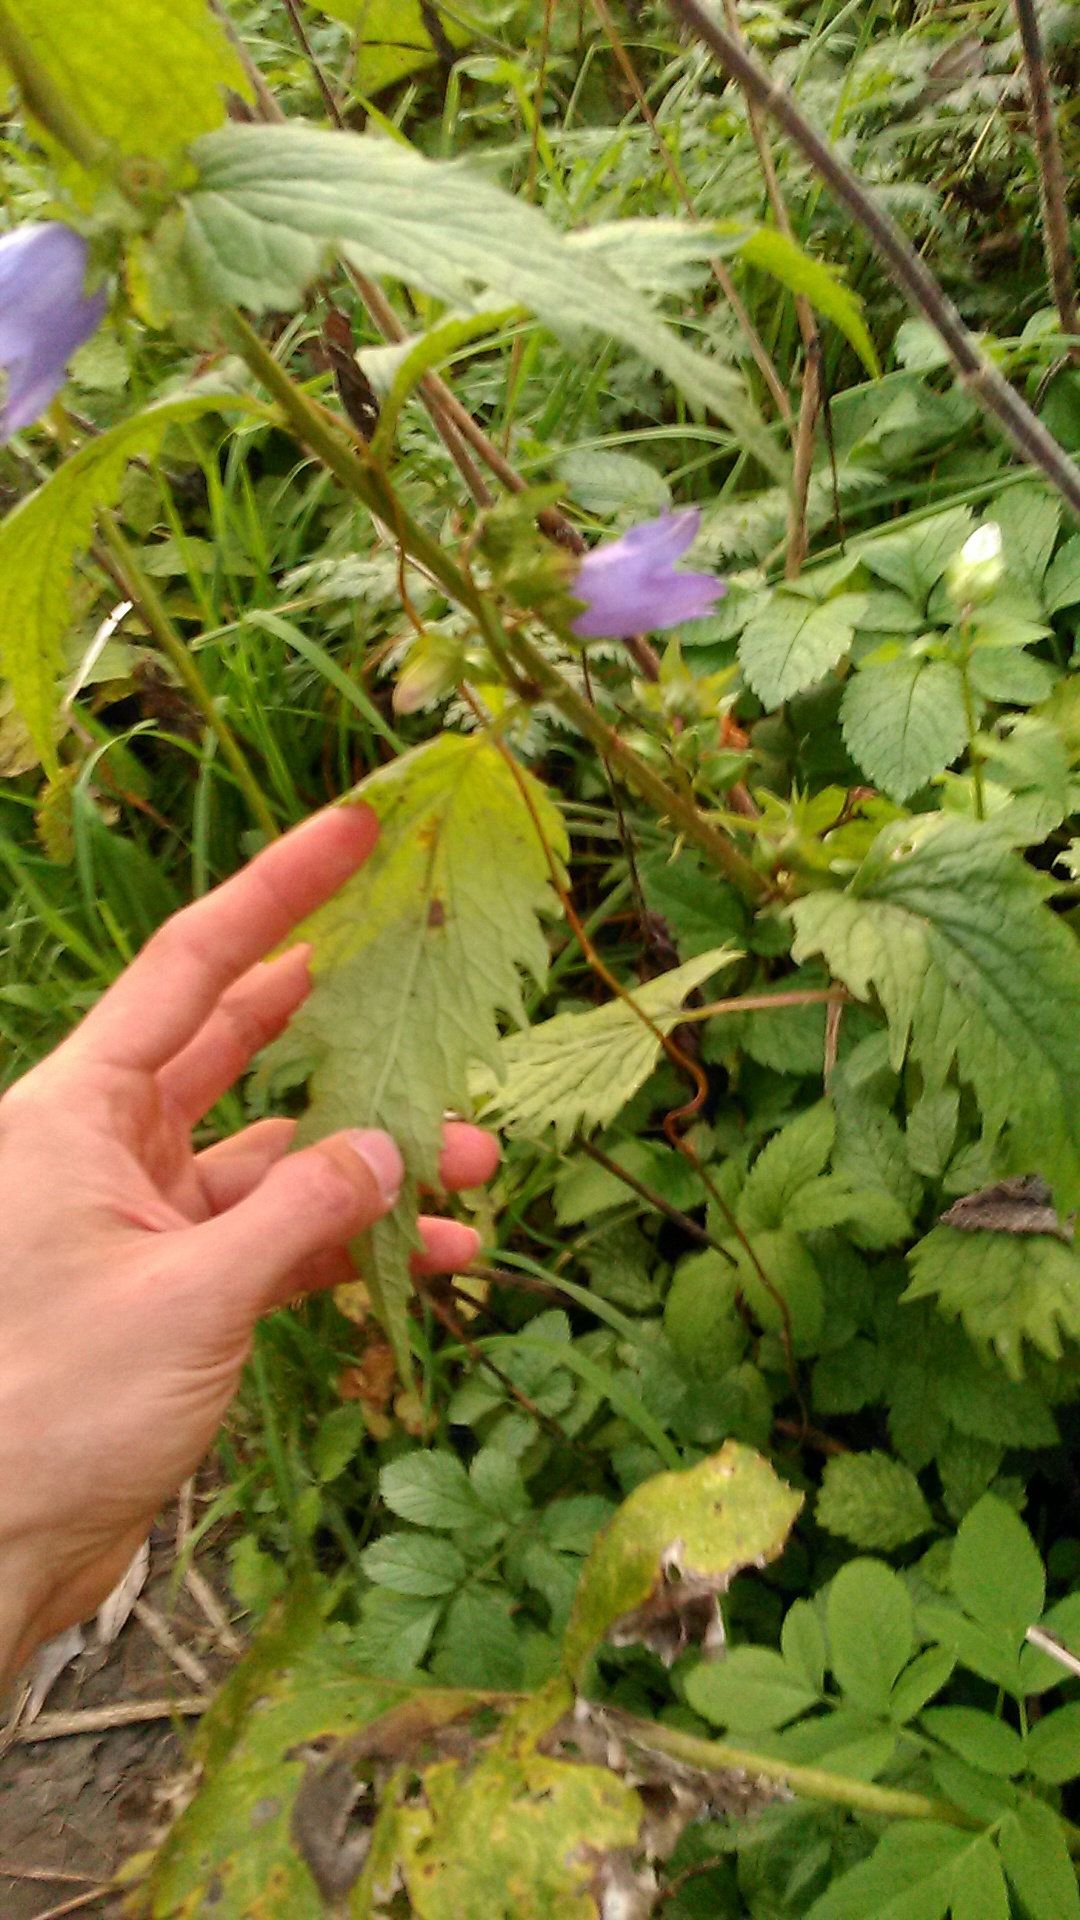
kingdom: Plantae
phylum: Tracheophyta
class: Magnoliopsida
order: Asterales
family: Campanulaceae
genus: Campanula
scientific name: Campanula trachelium
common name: Nettle-leaved bellflower
